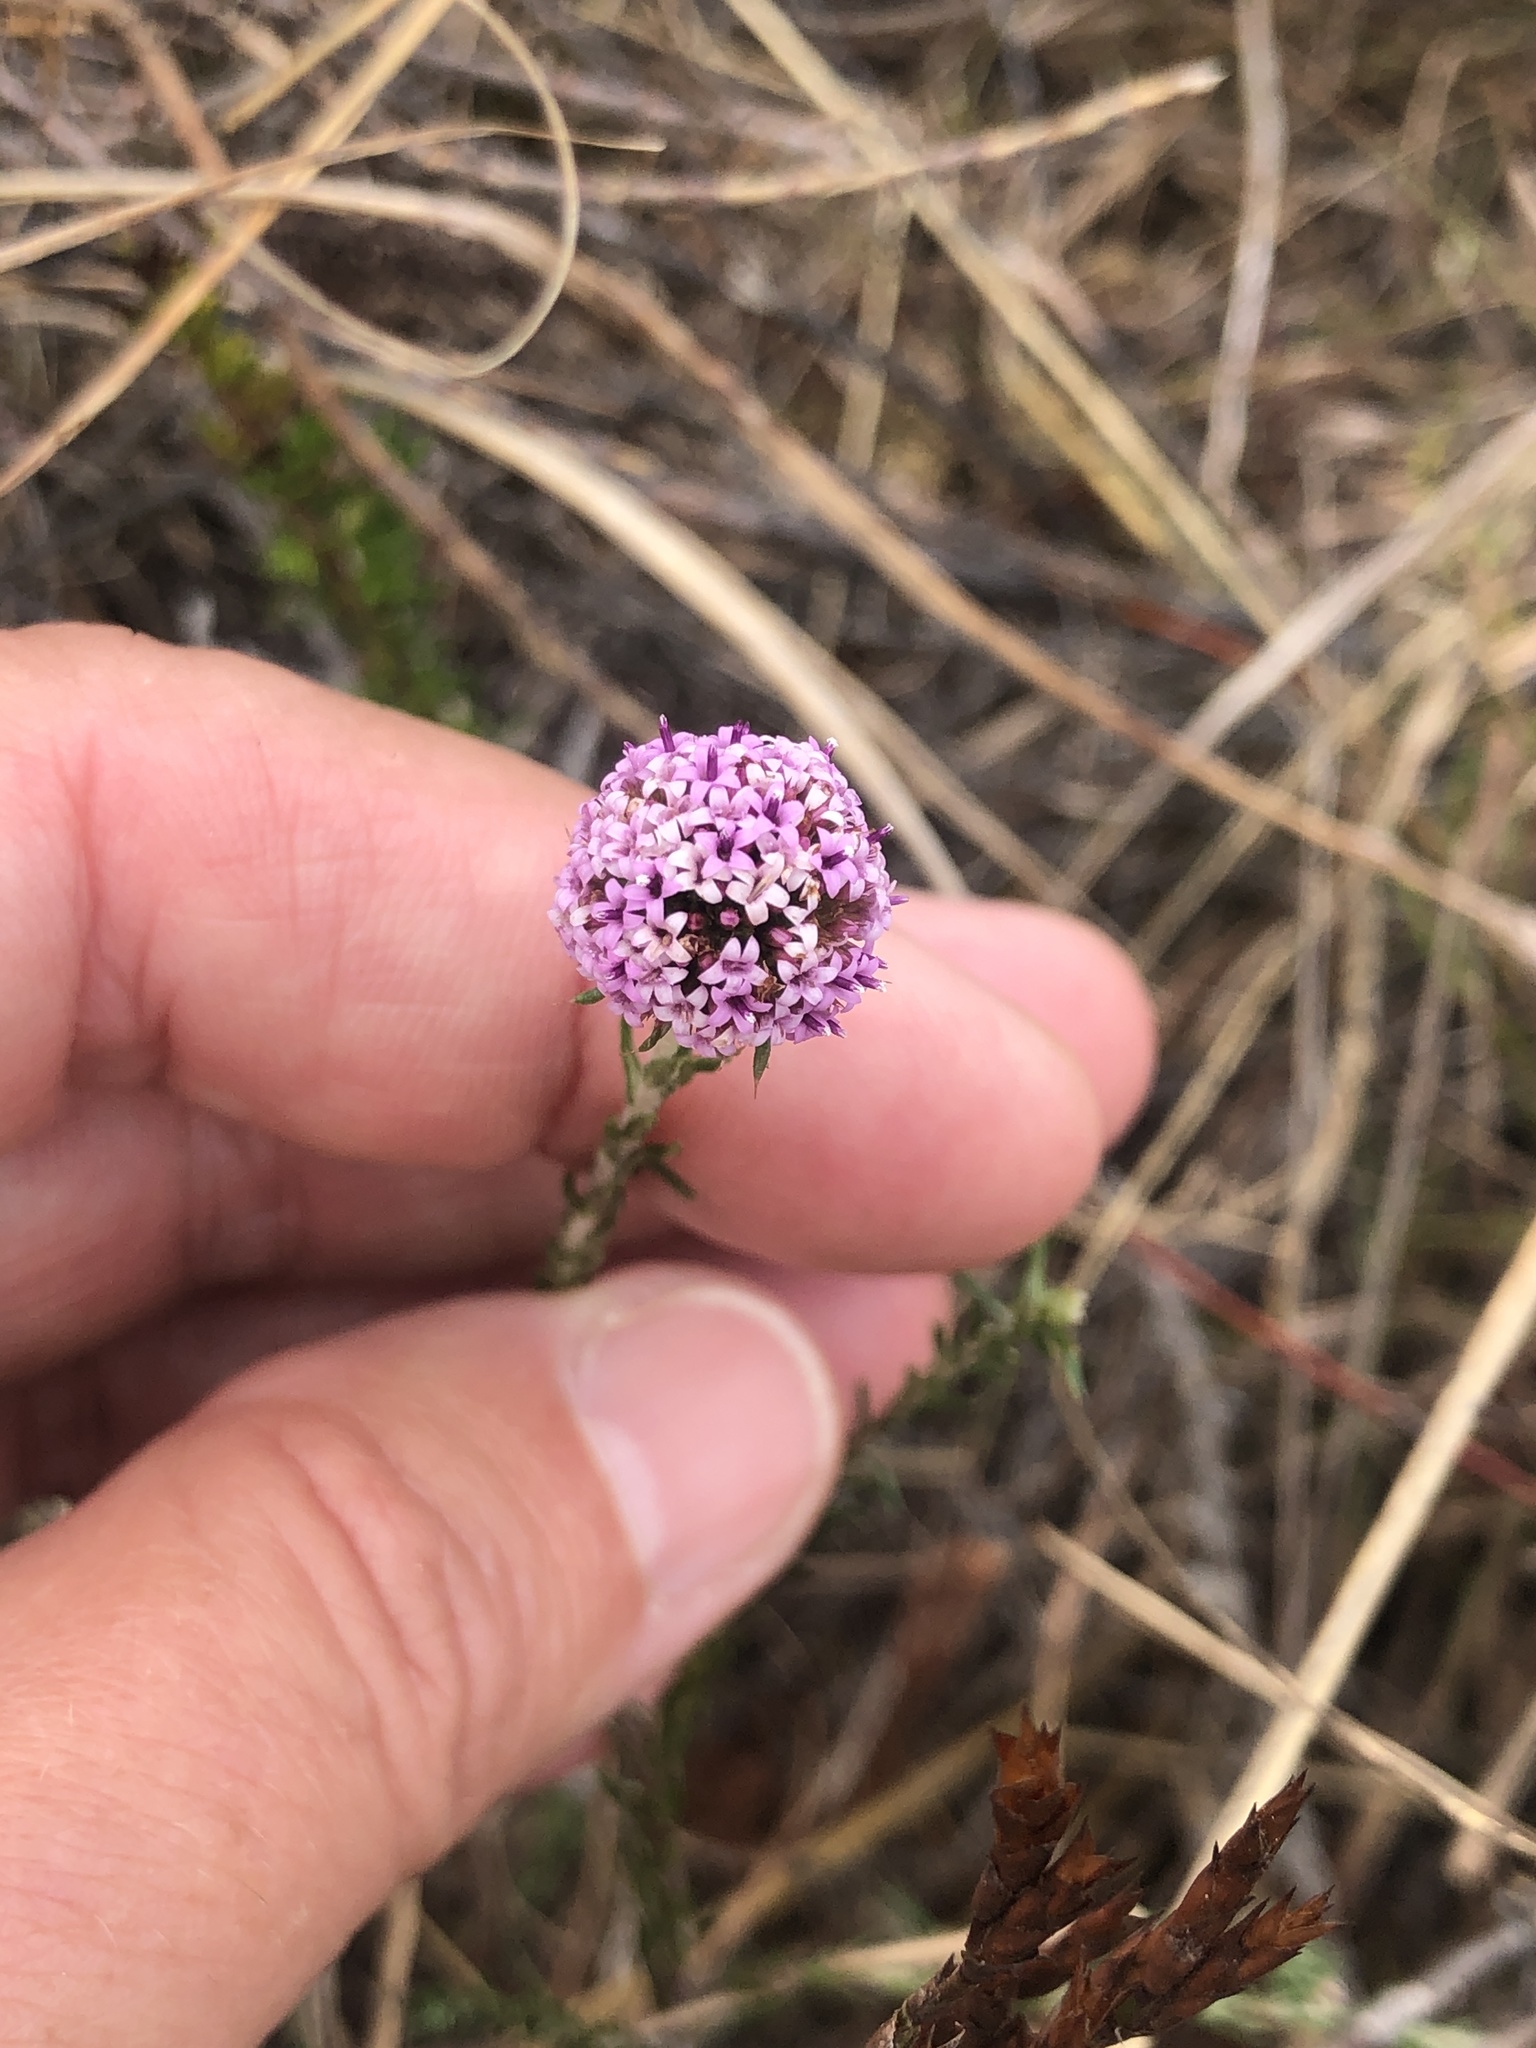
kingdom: Plantae
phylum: Tracheophyta
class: Magnoliopsida
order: Asterales
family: Asteraceae
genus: Stoebe
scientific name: Stoebe capitata
